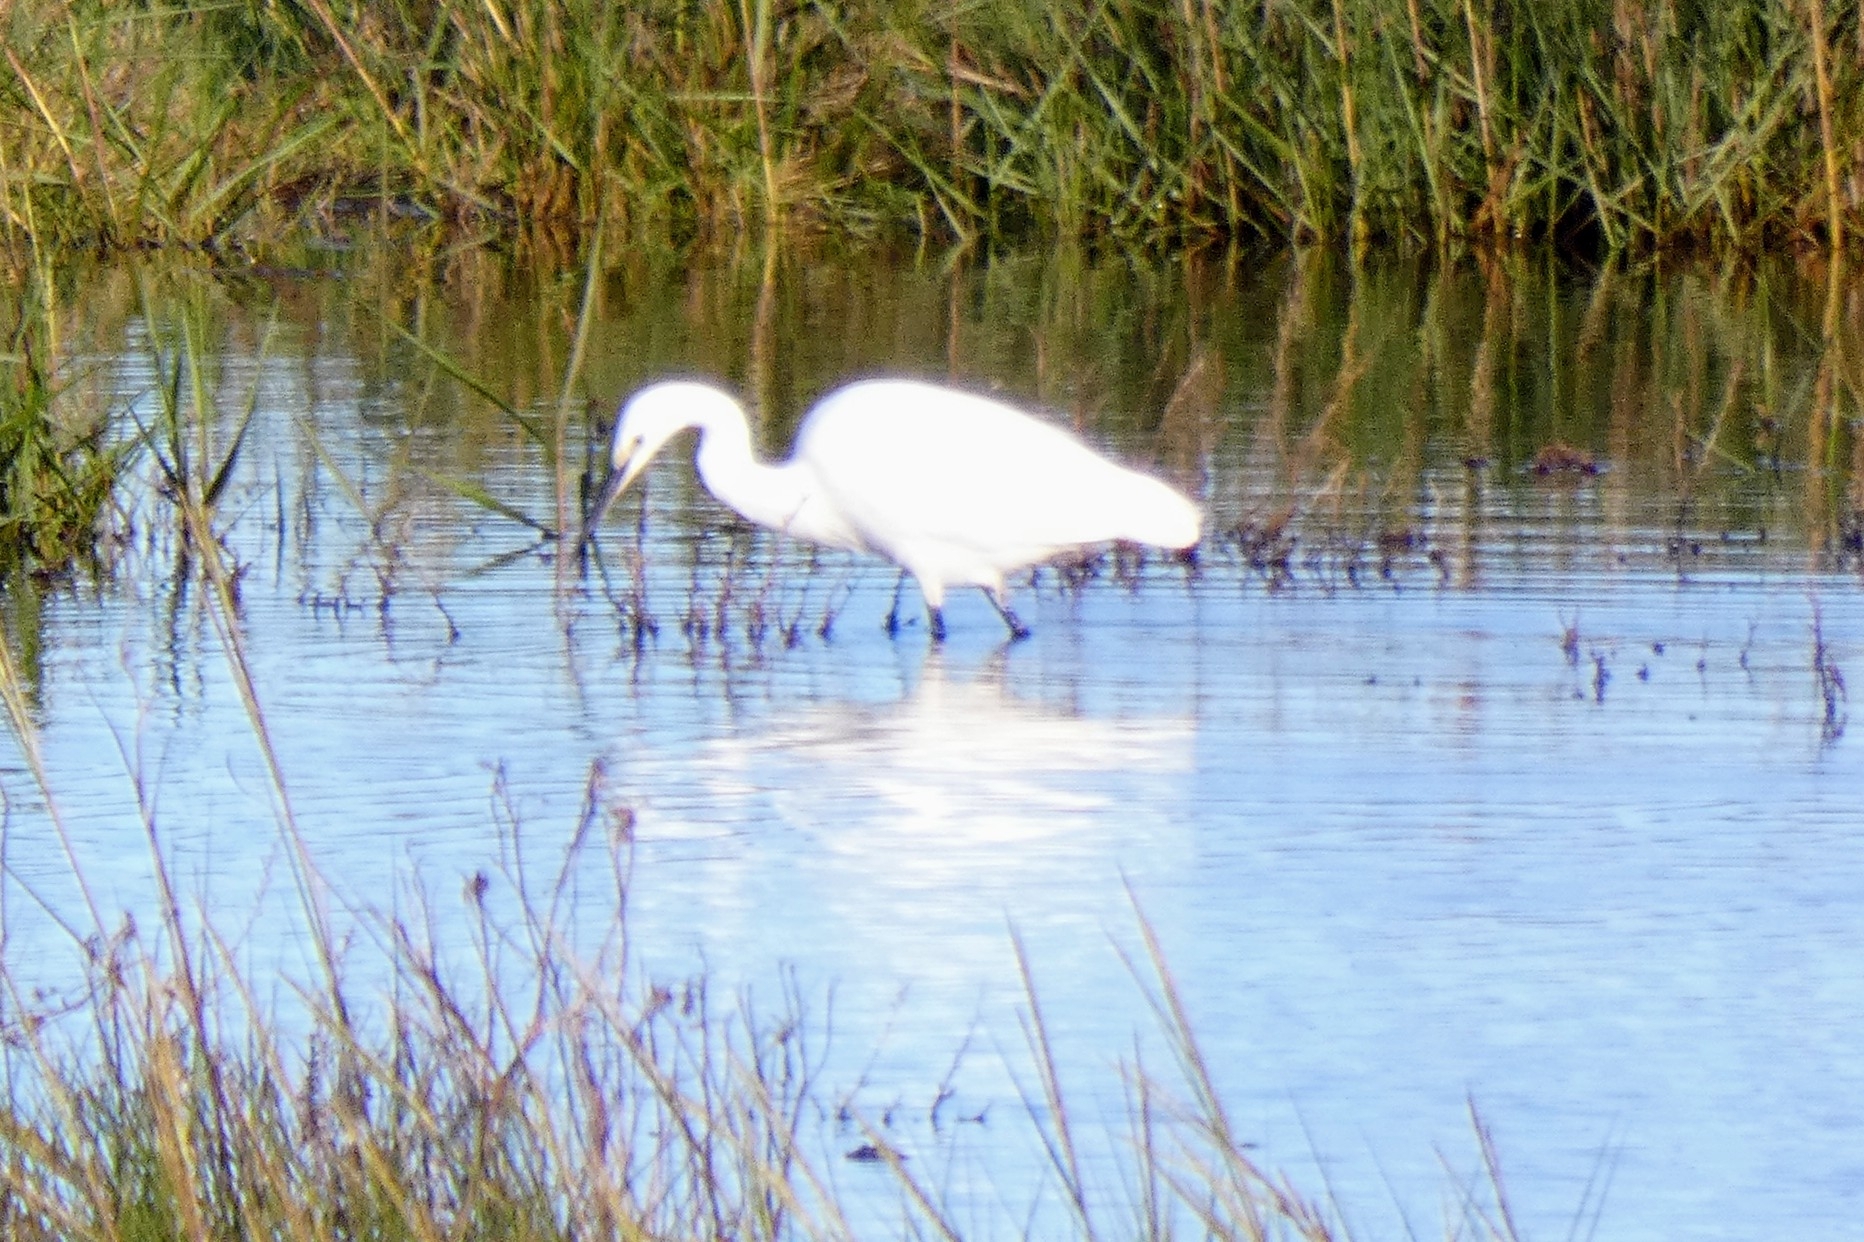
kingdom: Animalia
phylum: Chordata
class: Aves
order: Pelecaniformes
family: Ardeidae
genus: Egretta
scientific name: Egretta garzetta
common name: Little egret
